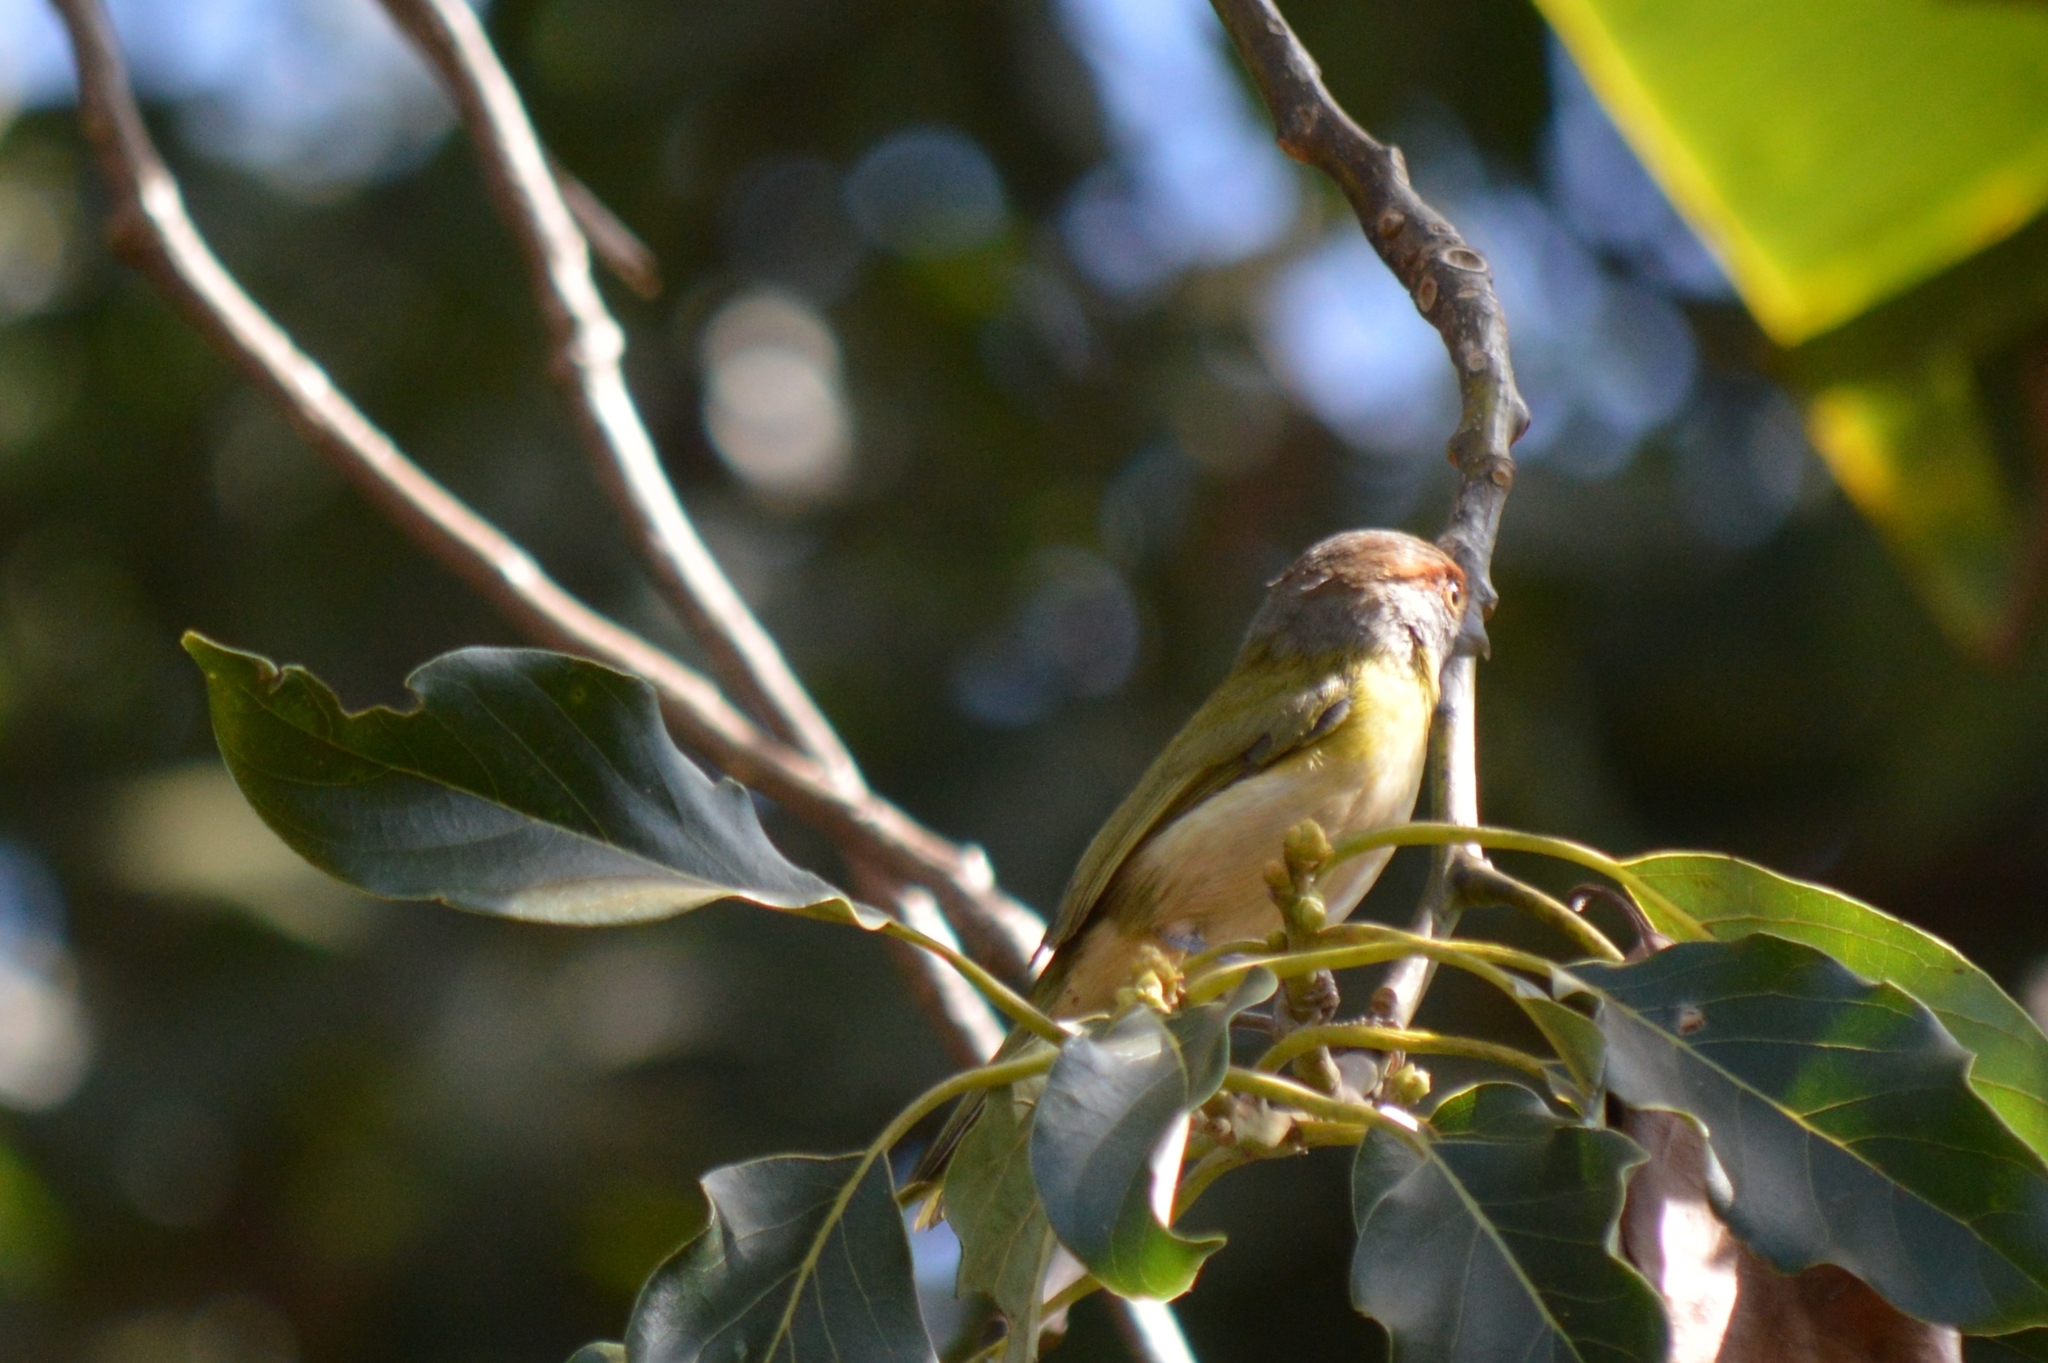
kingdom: Animalia
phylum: Chordata
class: Aves
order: Passeriformes
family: Vireonidae
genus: Cyclarhis
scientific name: Cyclarhis gujanensis
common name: Rufous-browed peppershrike
